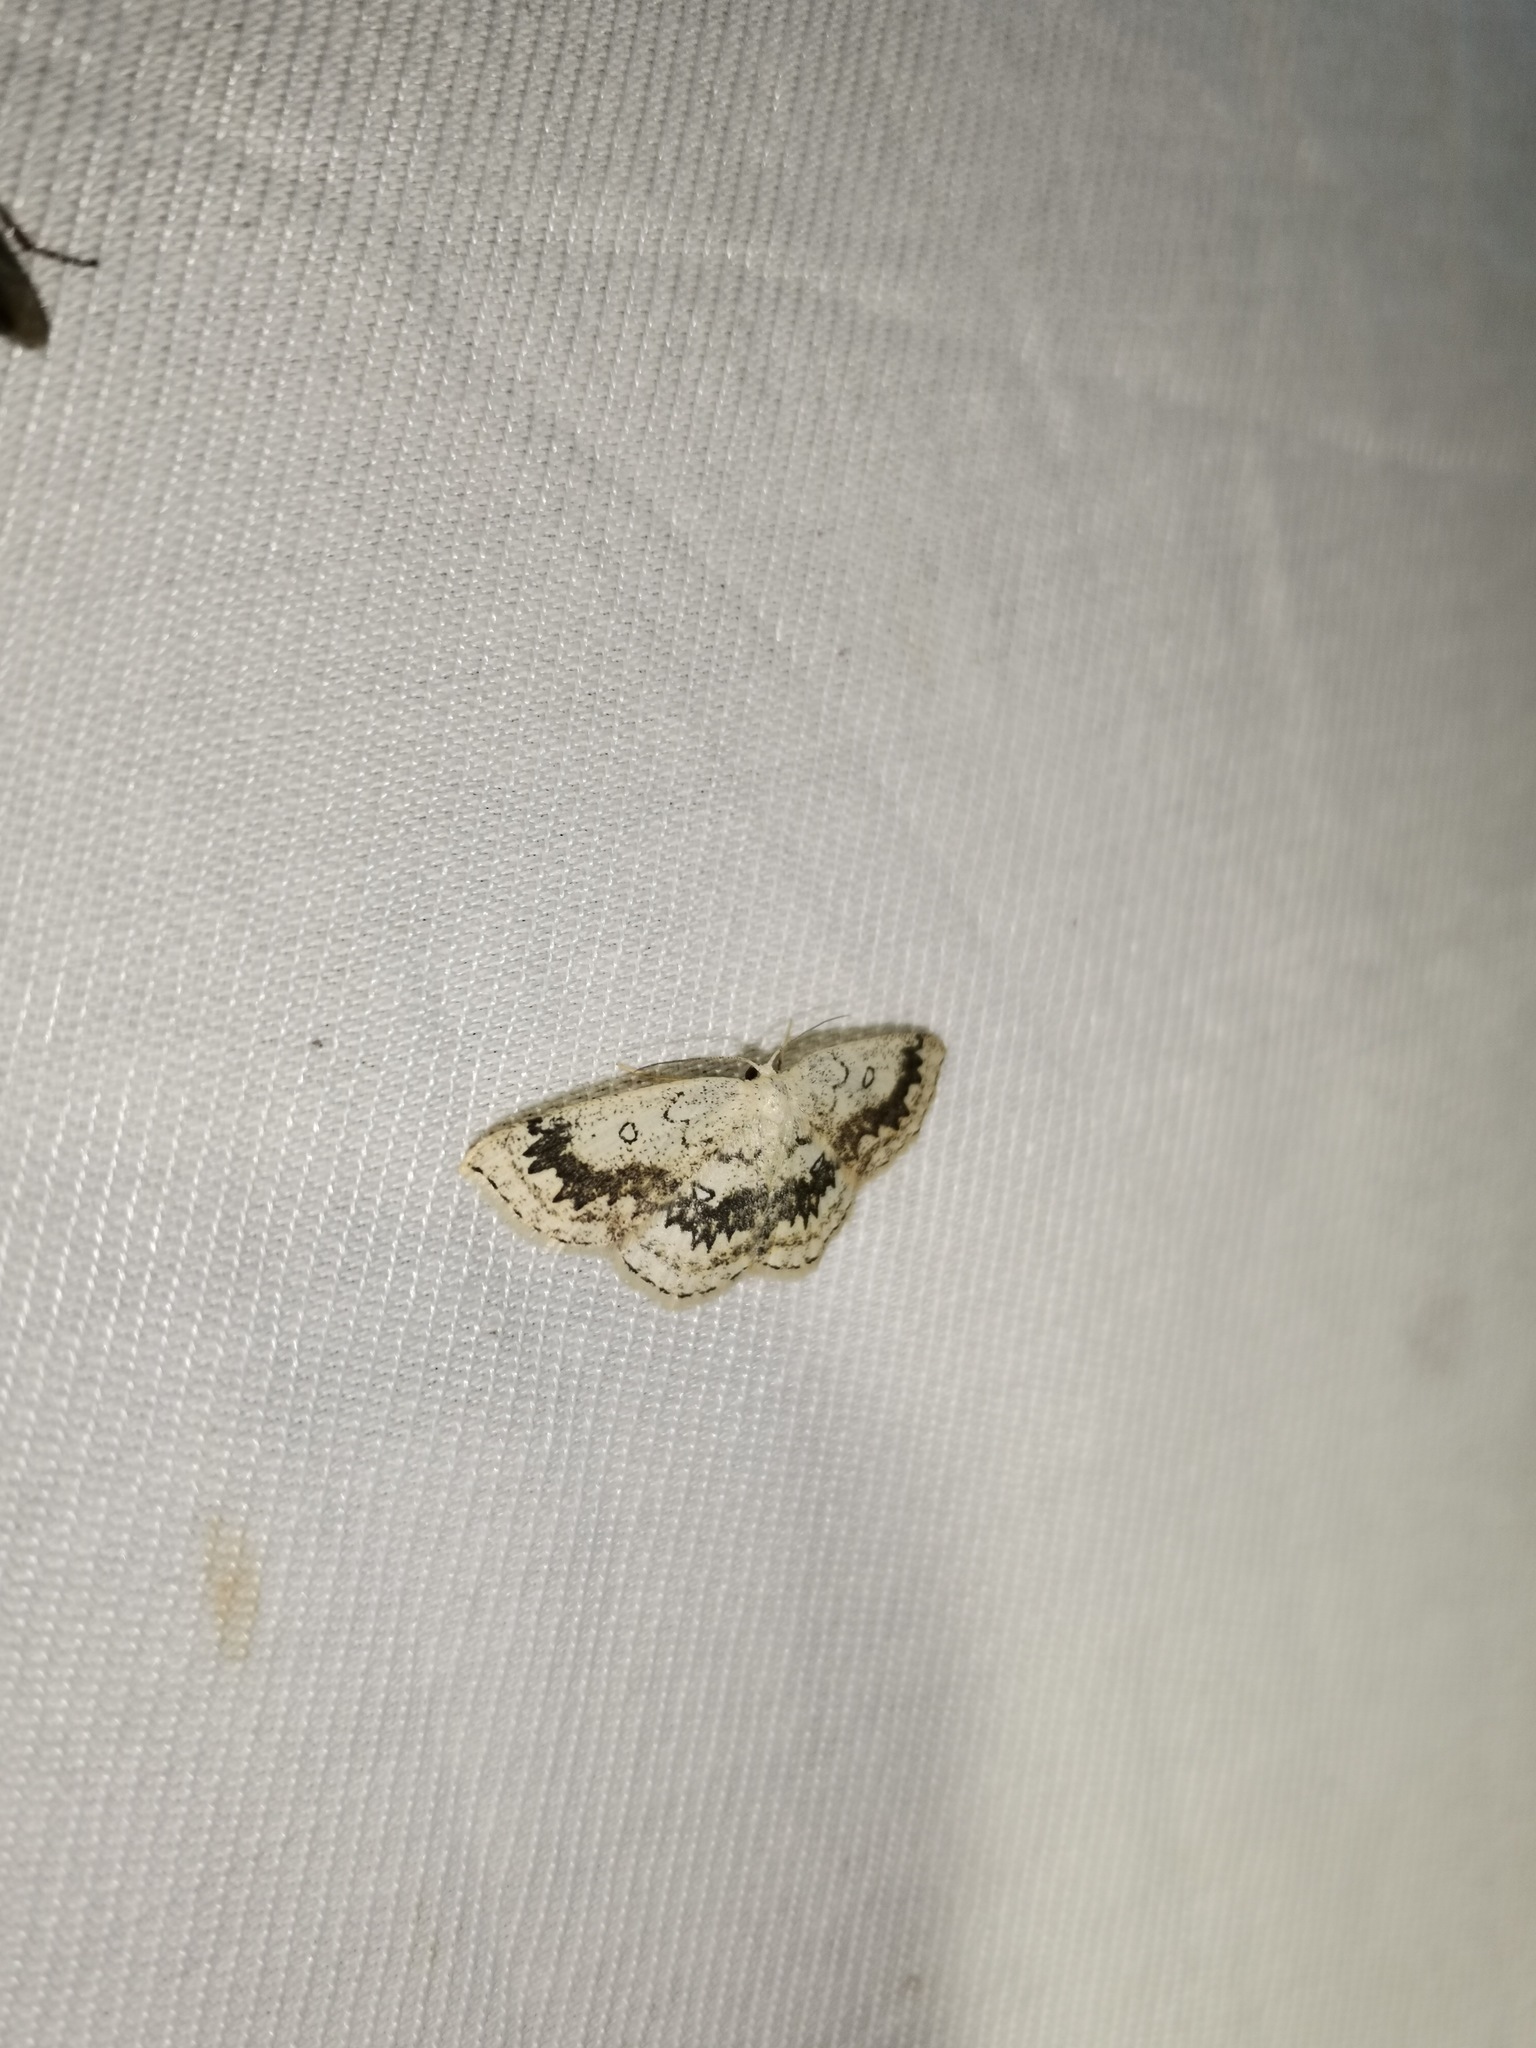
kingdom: Animalia
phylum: Arthropoda
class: Insecta
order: Lepidoptera
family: Geometridae
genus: Cyclophora
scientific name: Cyclophora annularia
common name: Mocha
